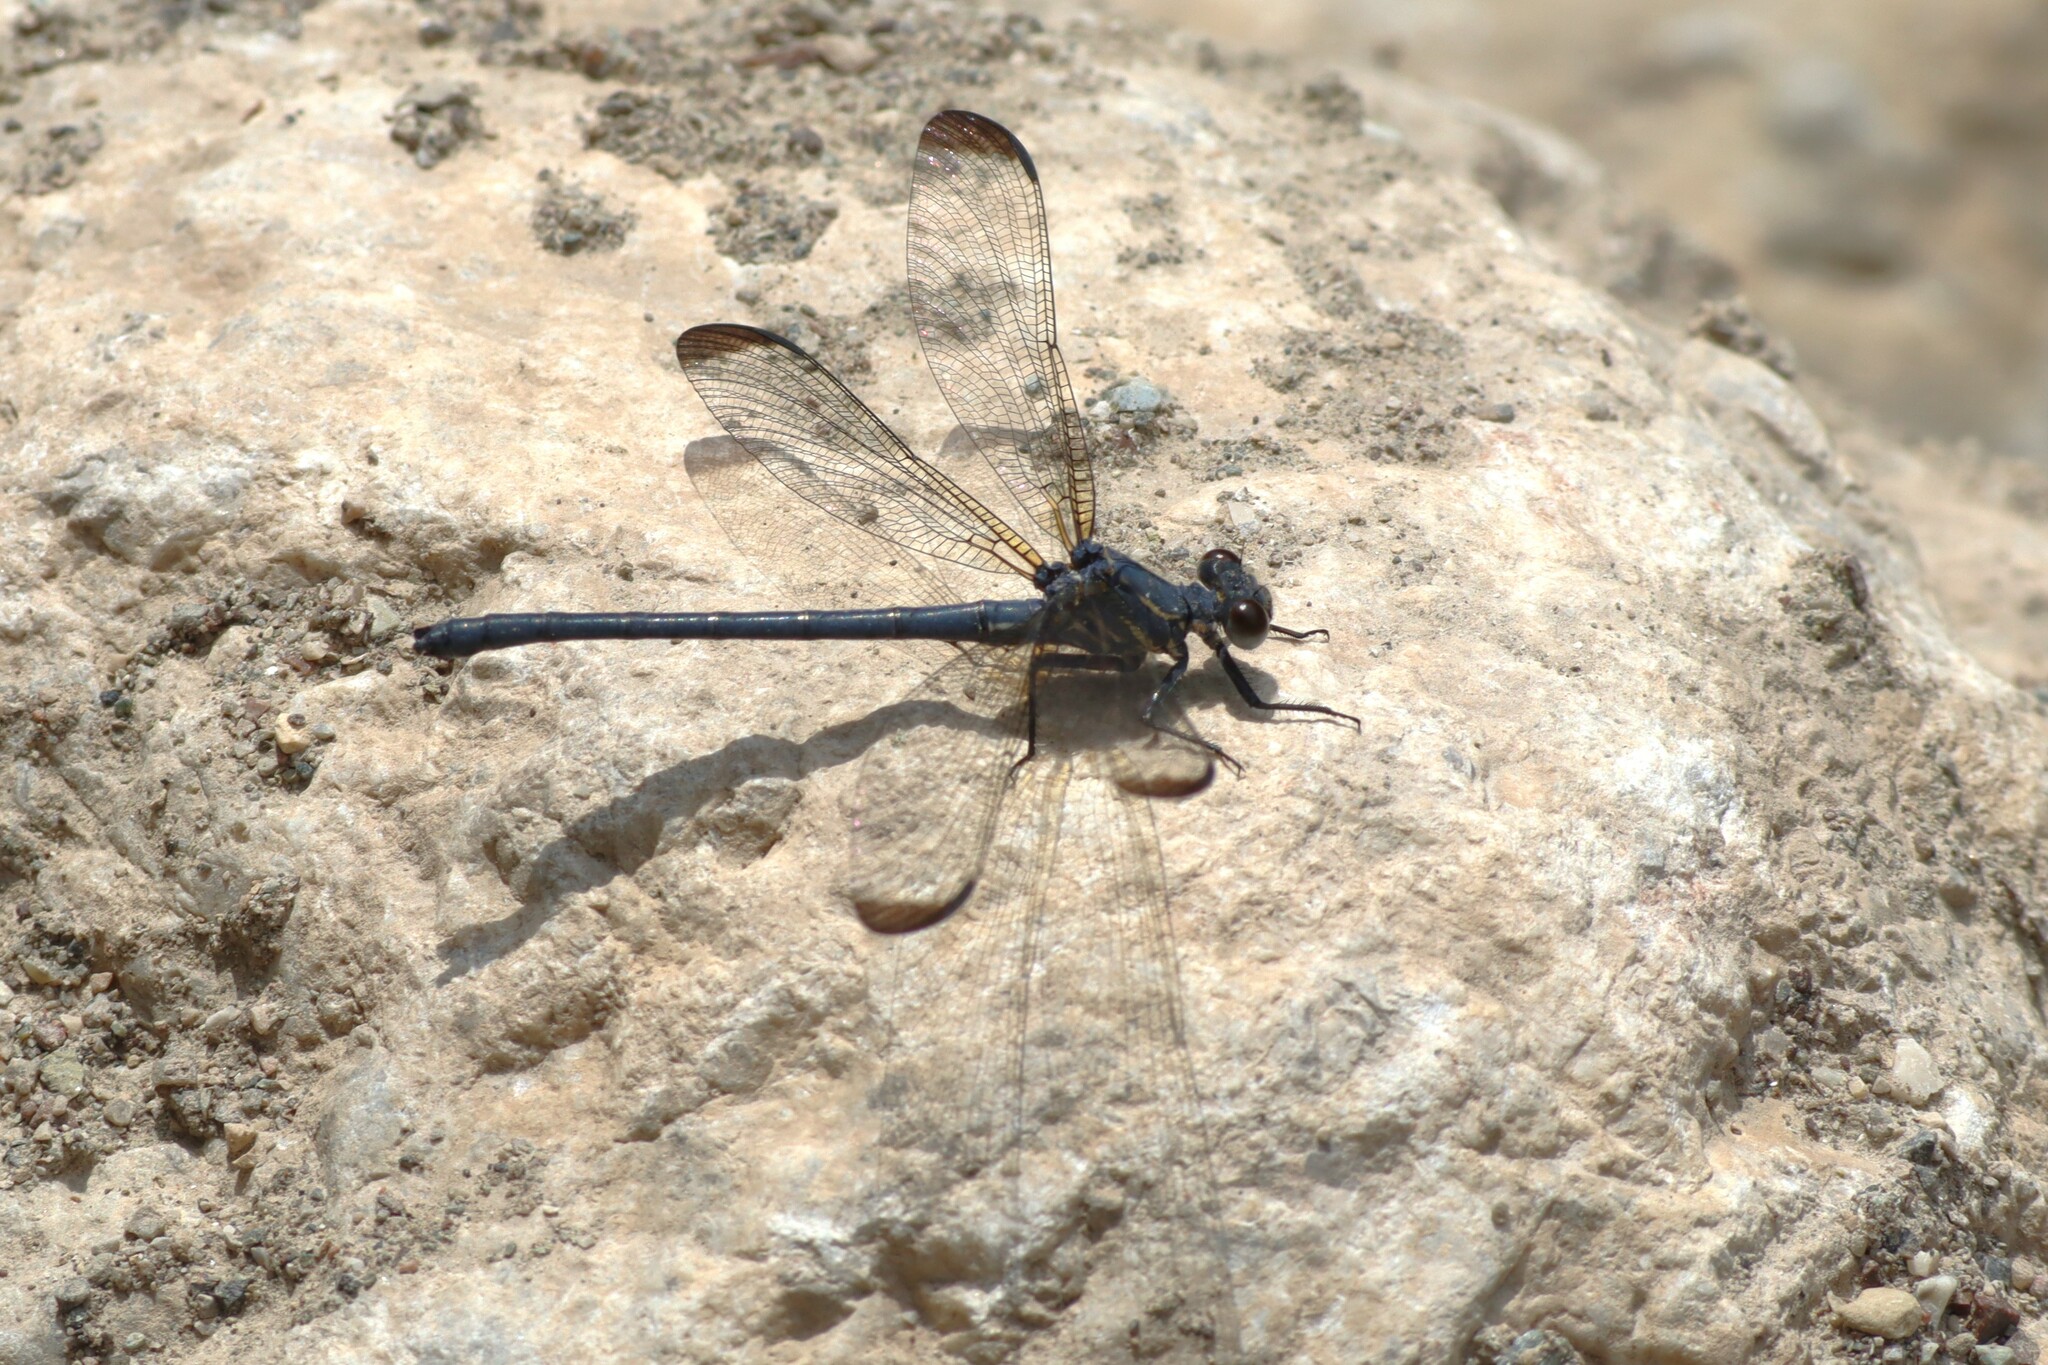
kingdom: Animalia
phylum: Arthropoda
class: Insecta
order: Odonata
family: Euphaeidae
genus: Epallage
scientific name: Epallage fatime
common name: Odalisque
